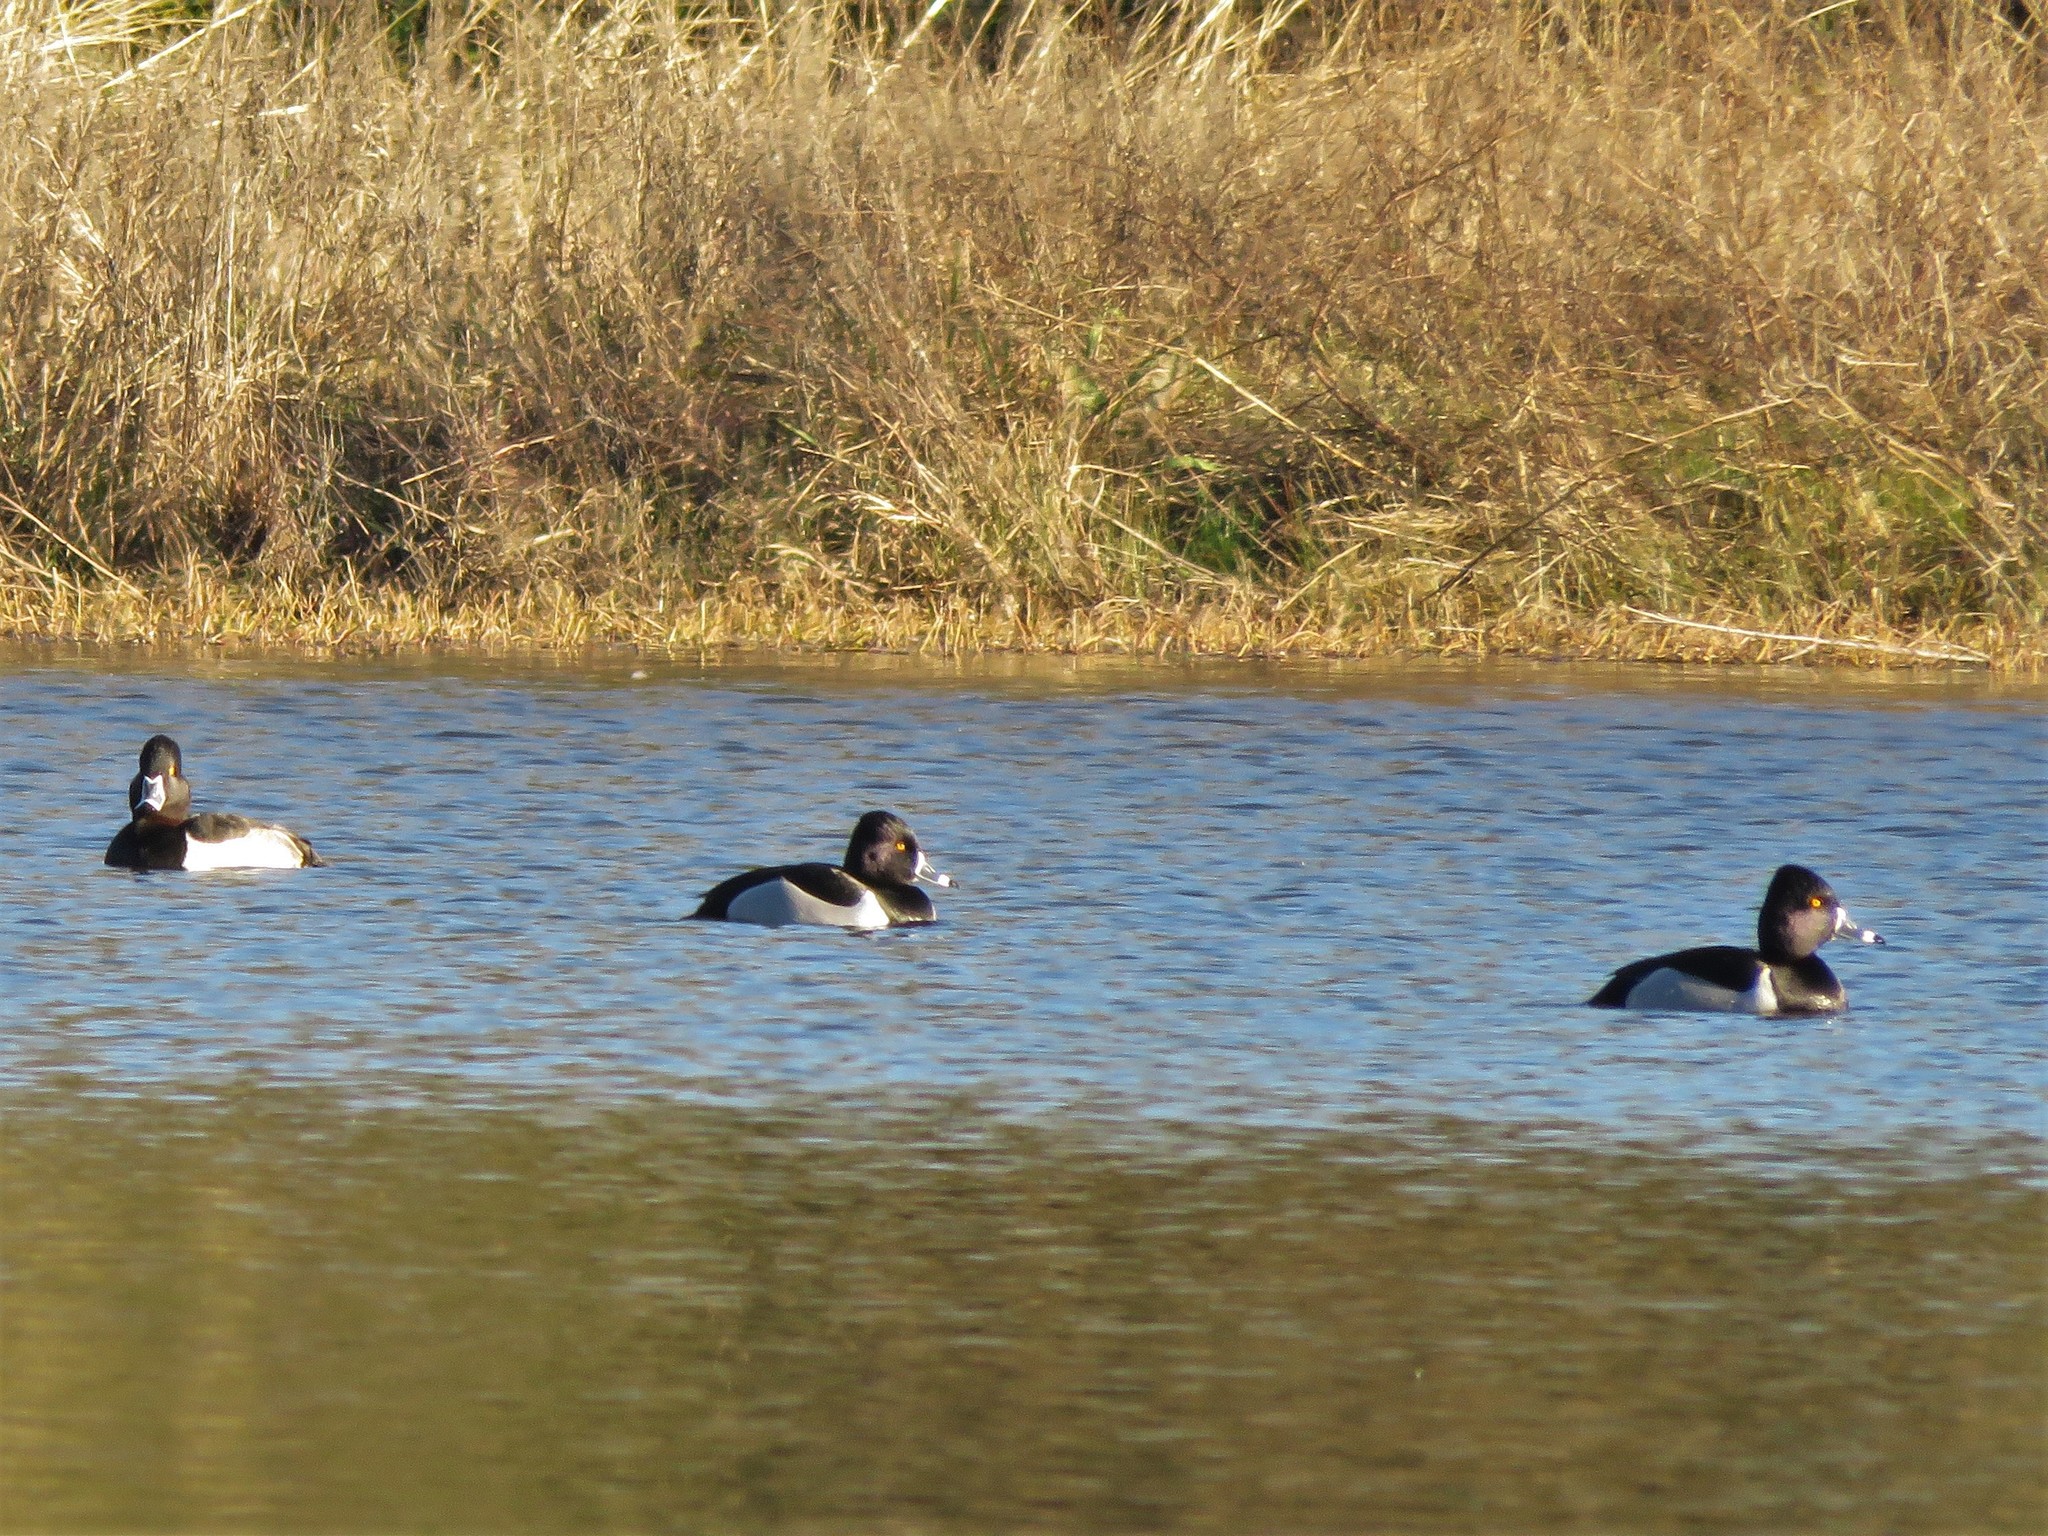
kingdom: Animalia
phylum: Chordata
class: Aves
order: Anseriformes
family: Anatidae
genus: Aythya
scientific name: Aythya collaris
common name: Ring-necked duck
